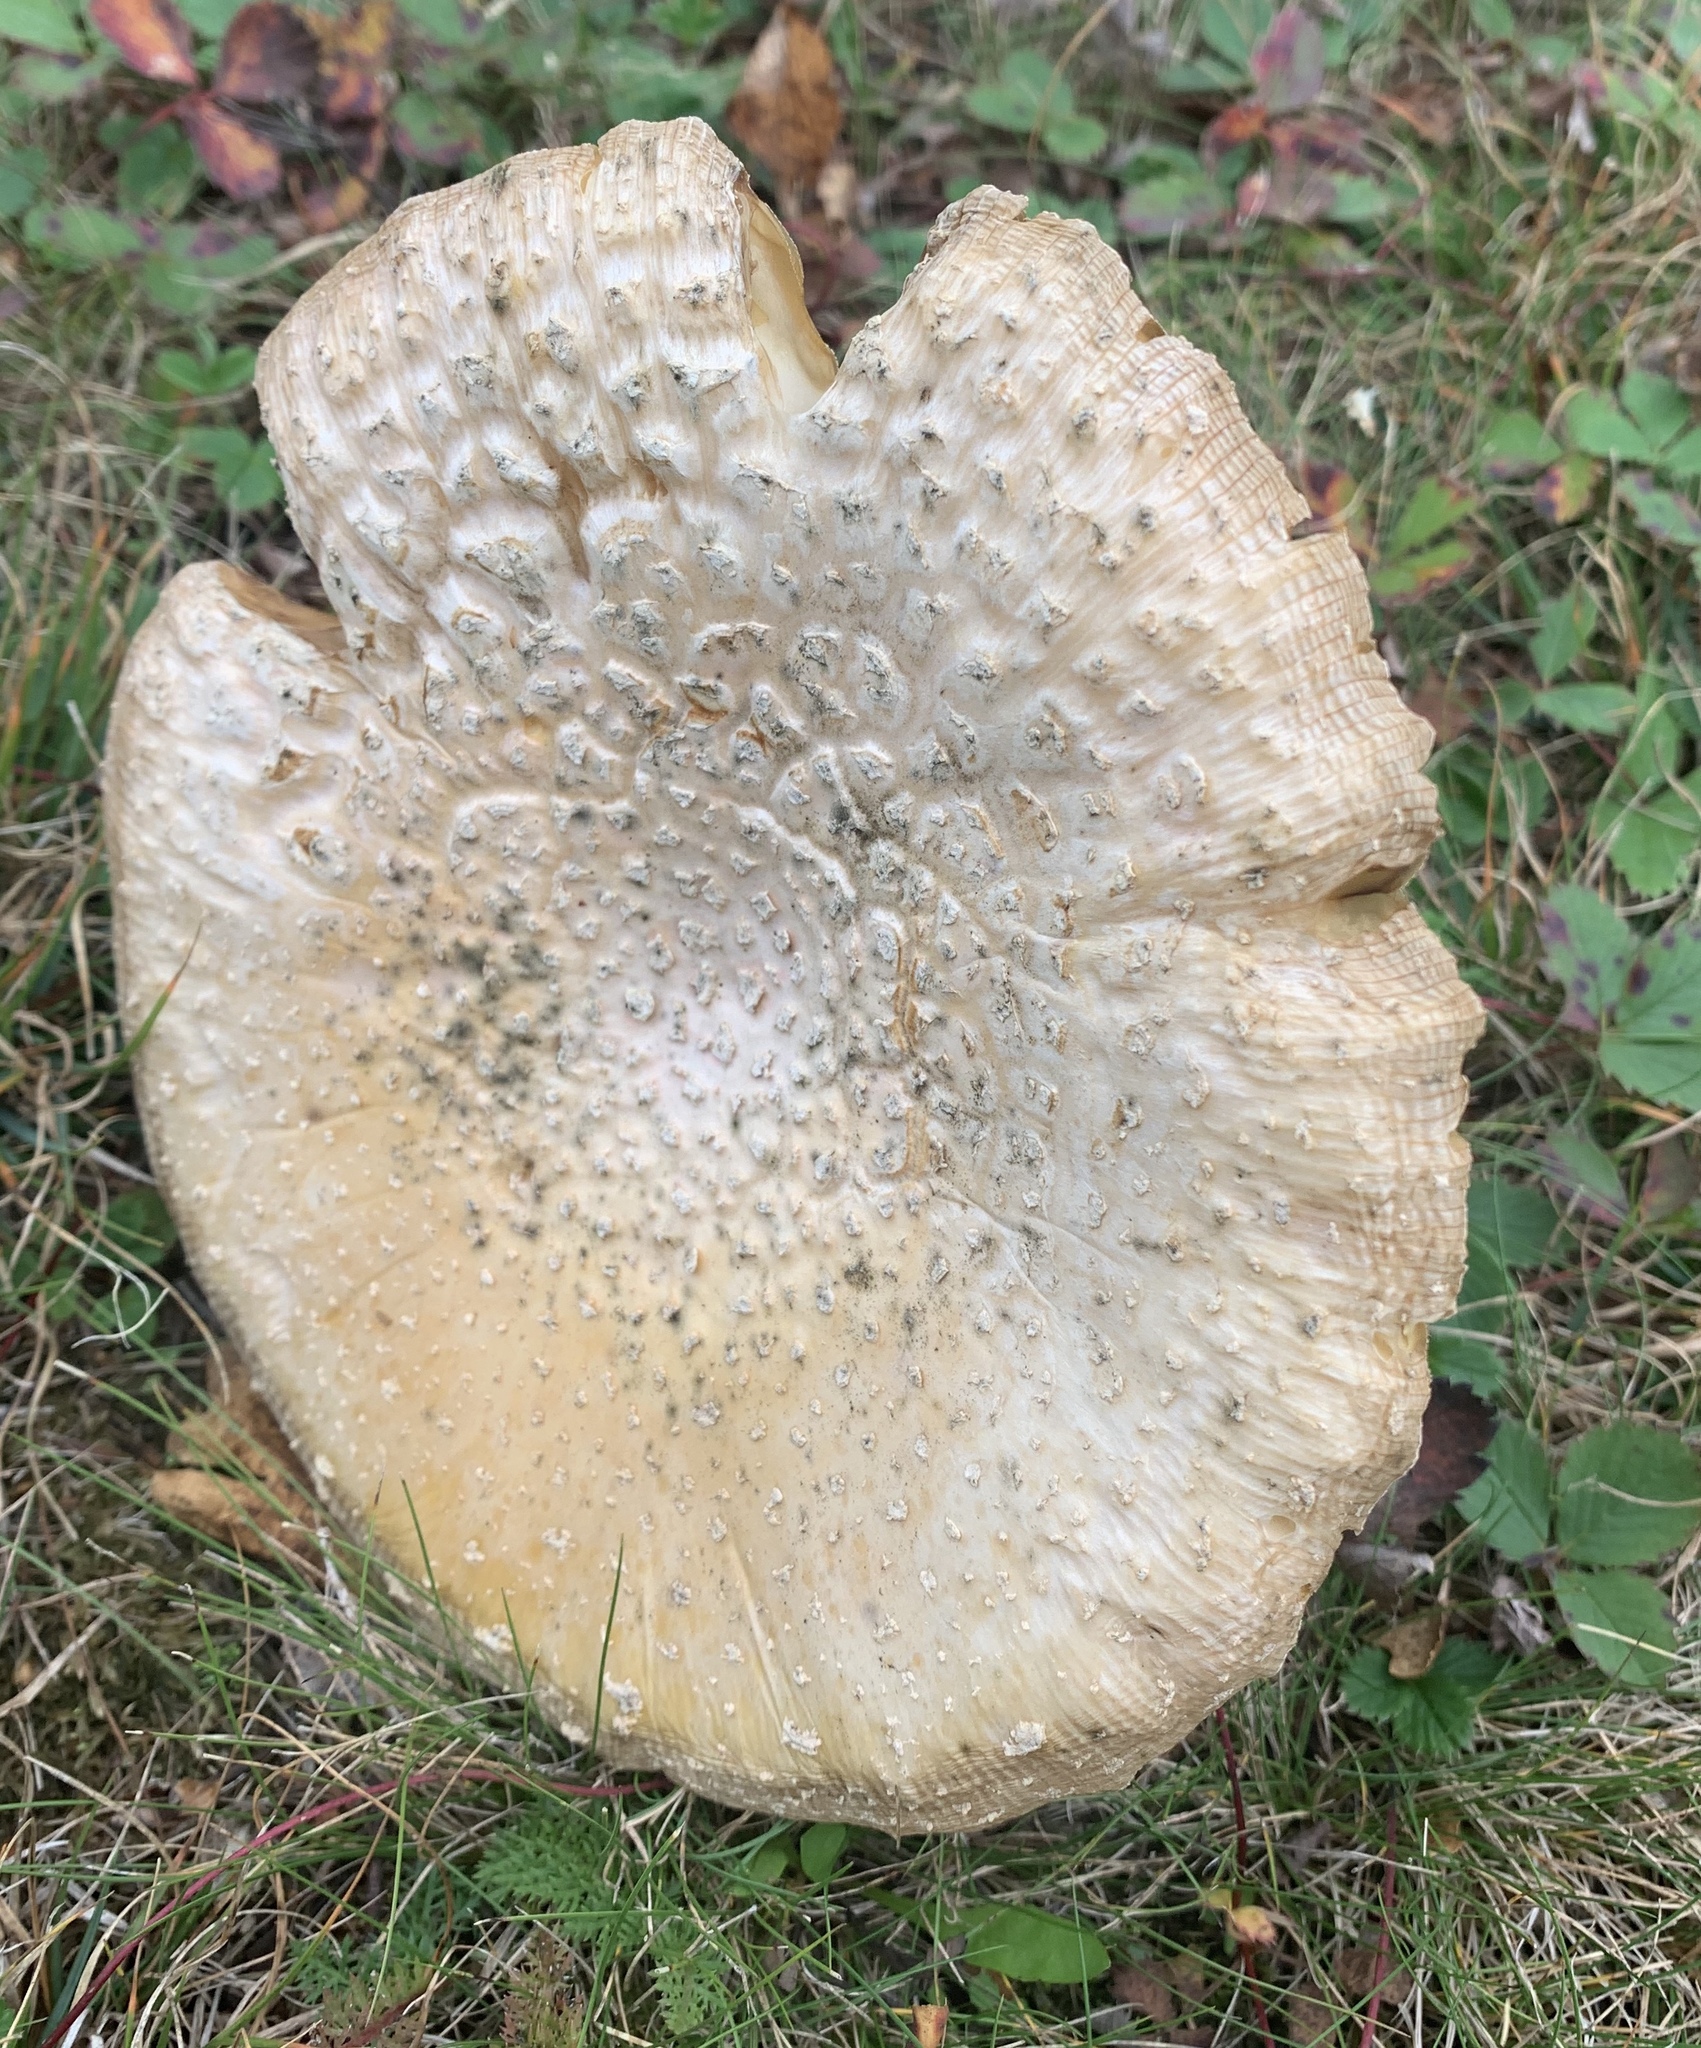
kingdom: Fungi
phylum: Basidiomycota
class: Agaricomycetes
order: Agaricales
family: Amanitaceae
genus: Amanita
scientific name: Amanita wellsii
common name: Salmon amanita
